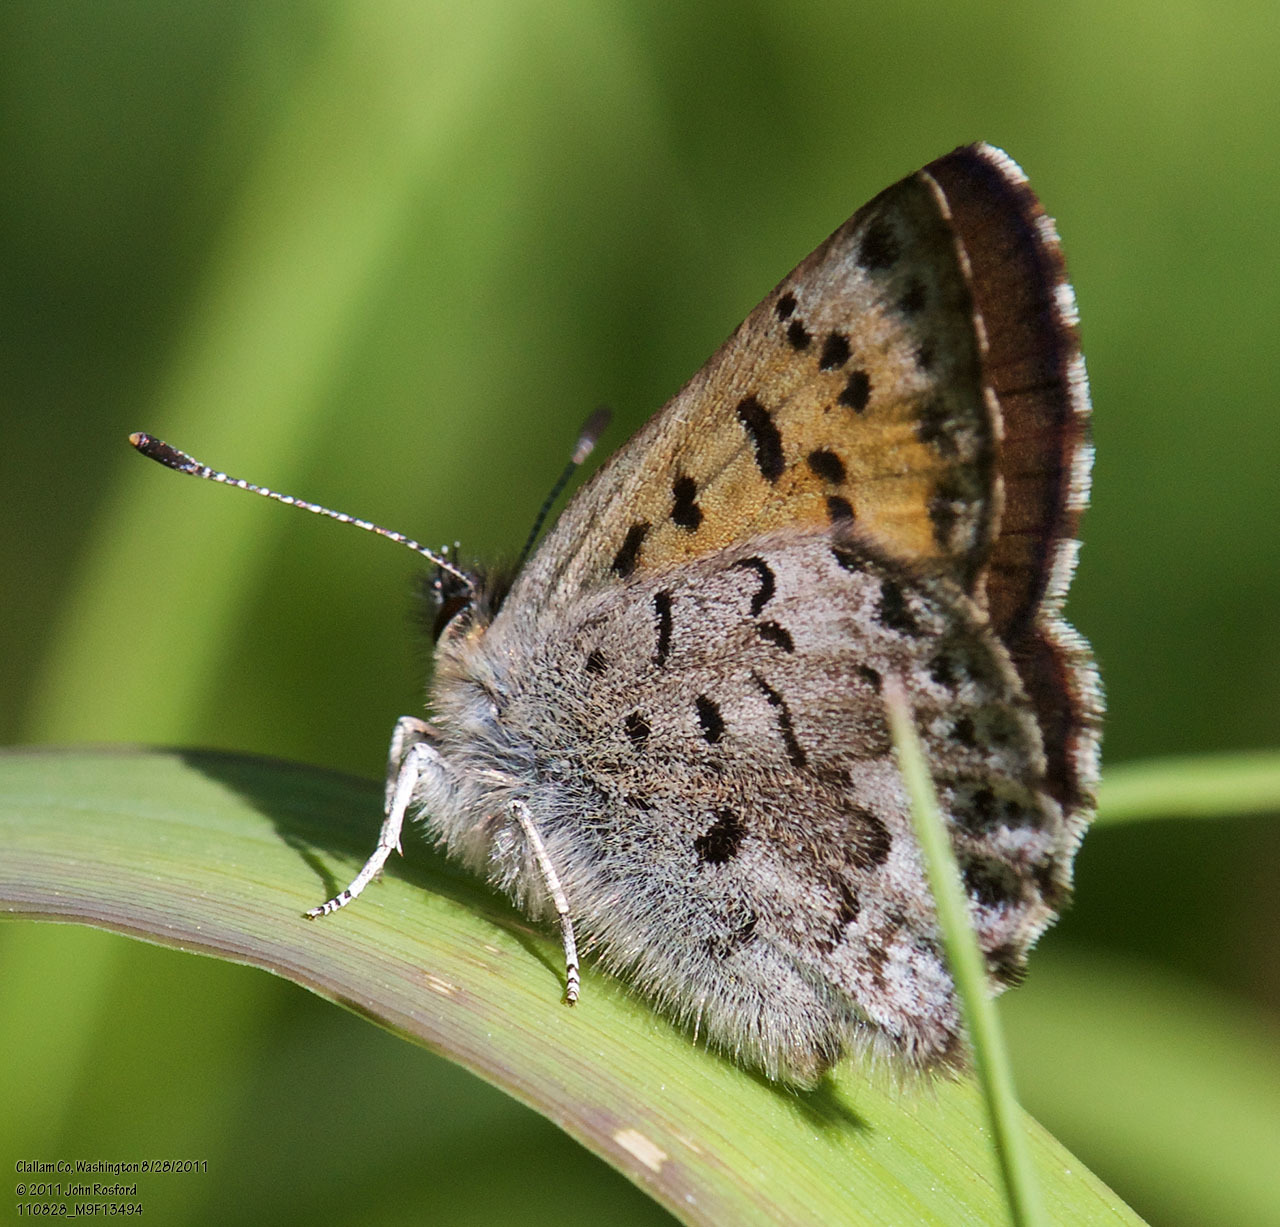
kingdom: Animalia
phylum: Arthropoda
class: Insecta
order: Lepidoptera
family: Lycaenidae
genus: Tharsalea
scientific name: Tharsalea mariposa
